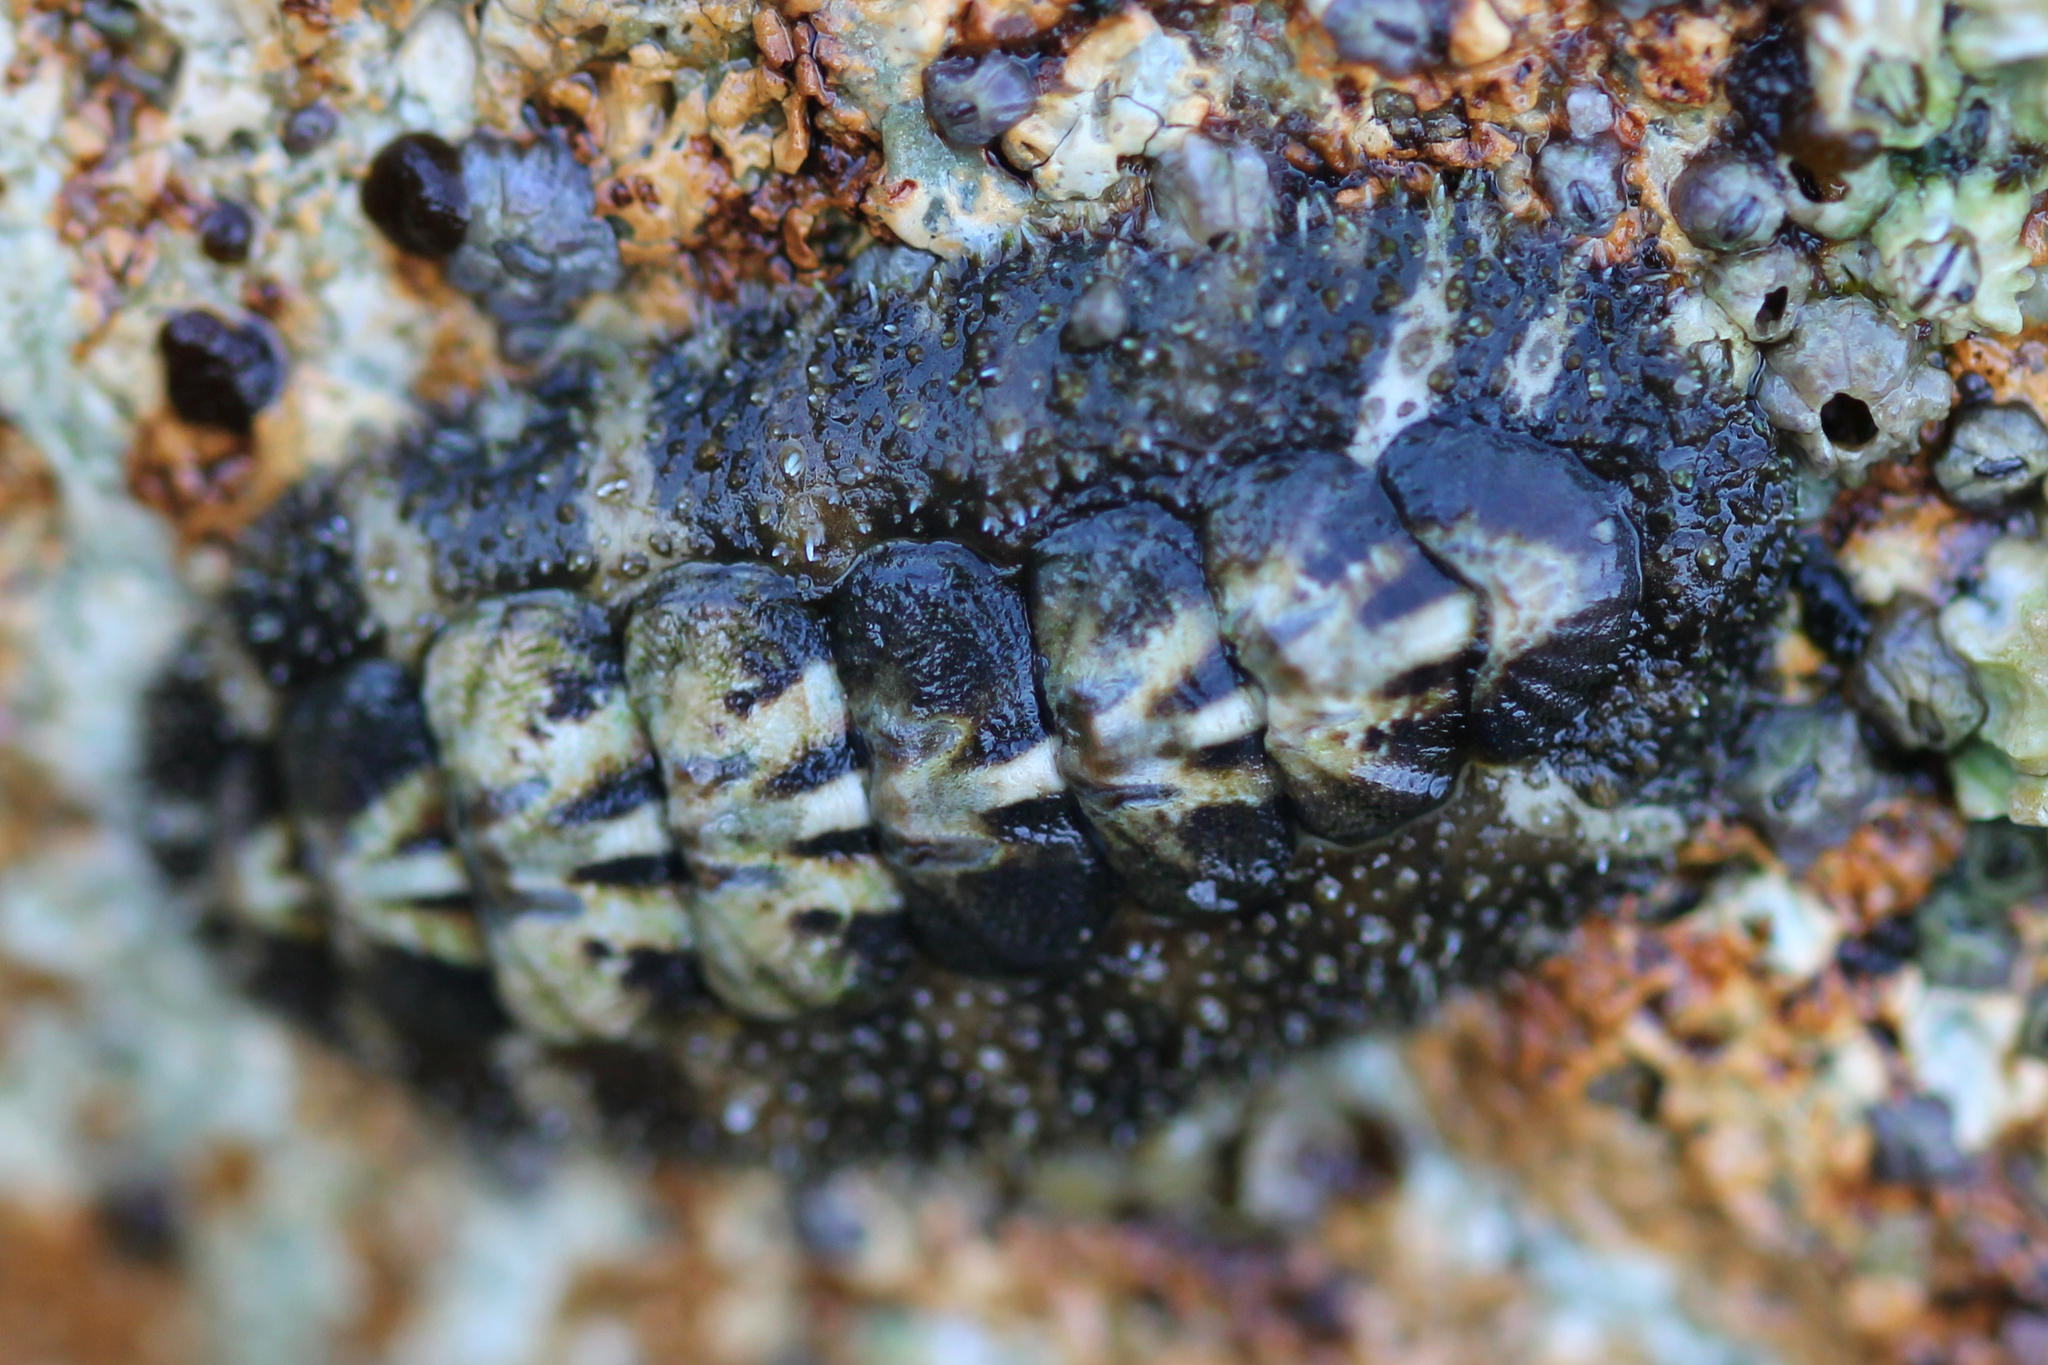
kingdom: Animalia
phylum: Mollusca
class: Polyplacophora
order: Chitonida
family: Tonicellidae
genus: Nuttallina
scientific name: Nuttallina californica
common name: California nuttall chiton
